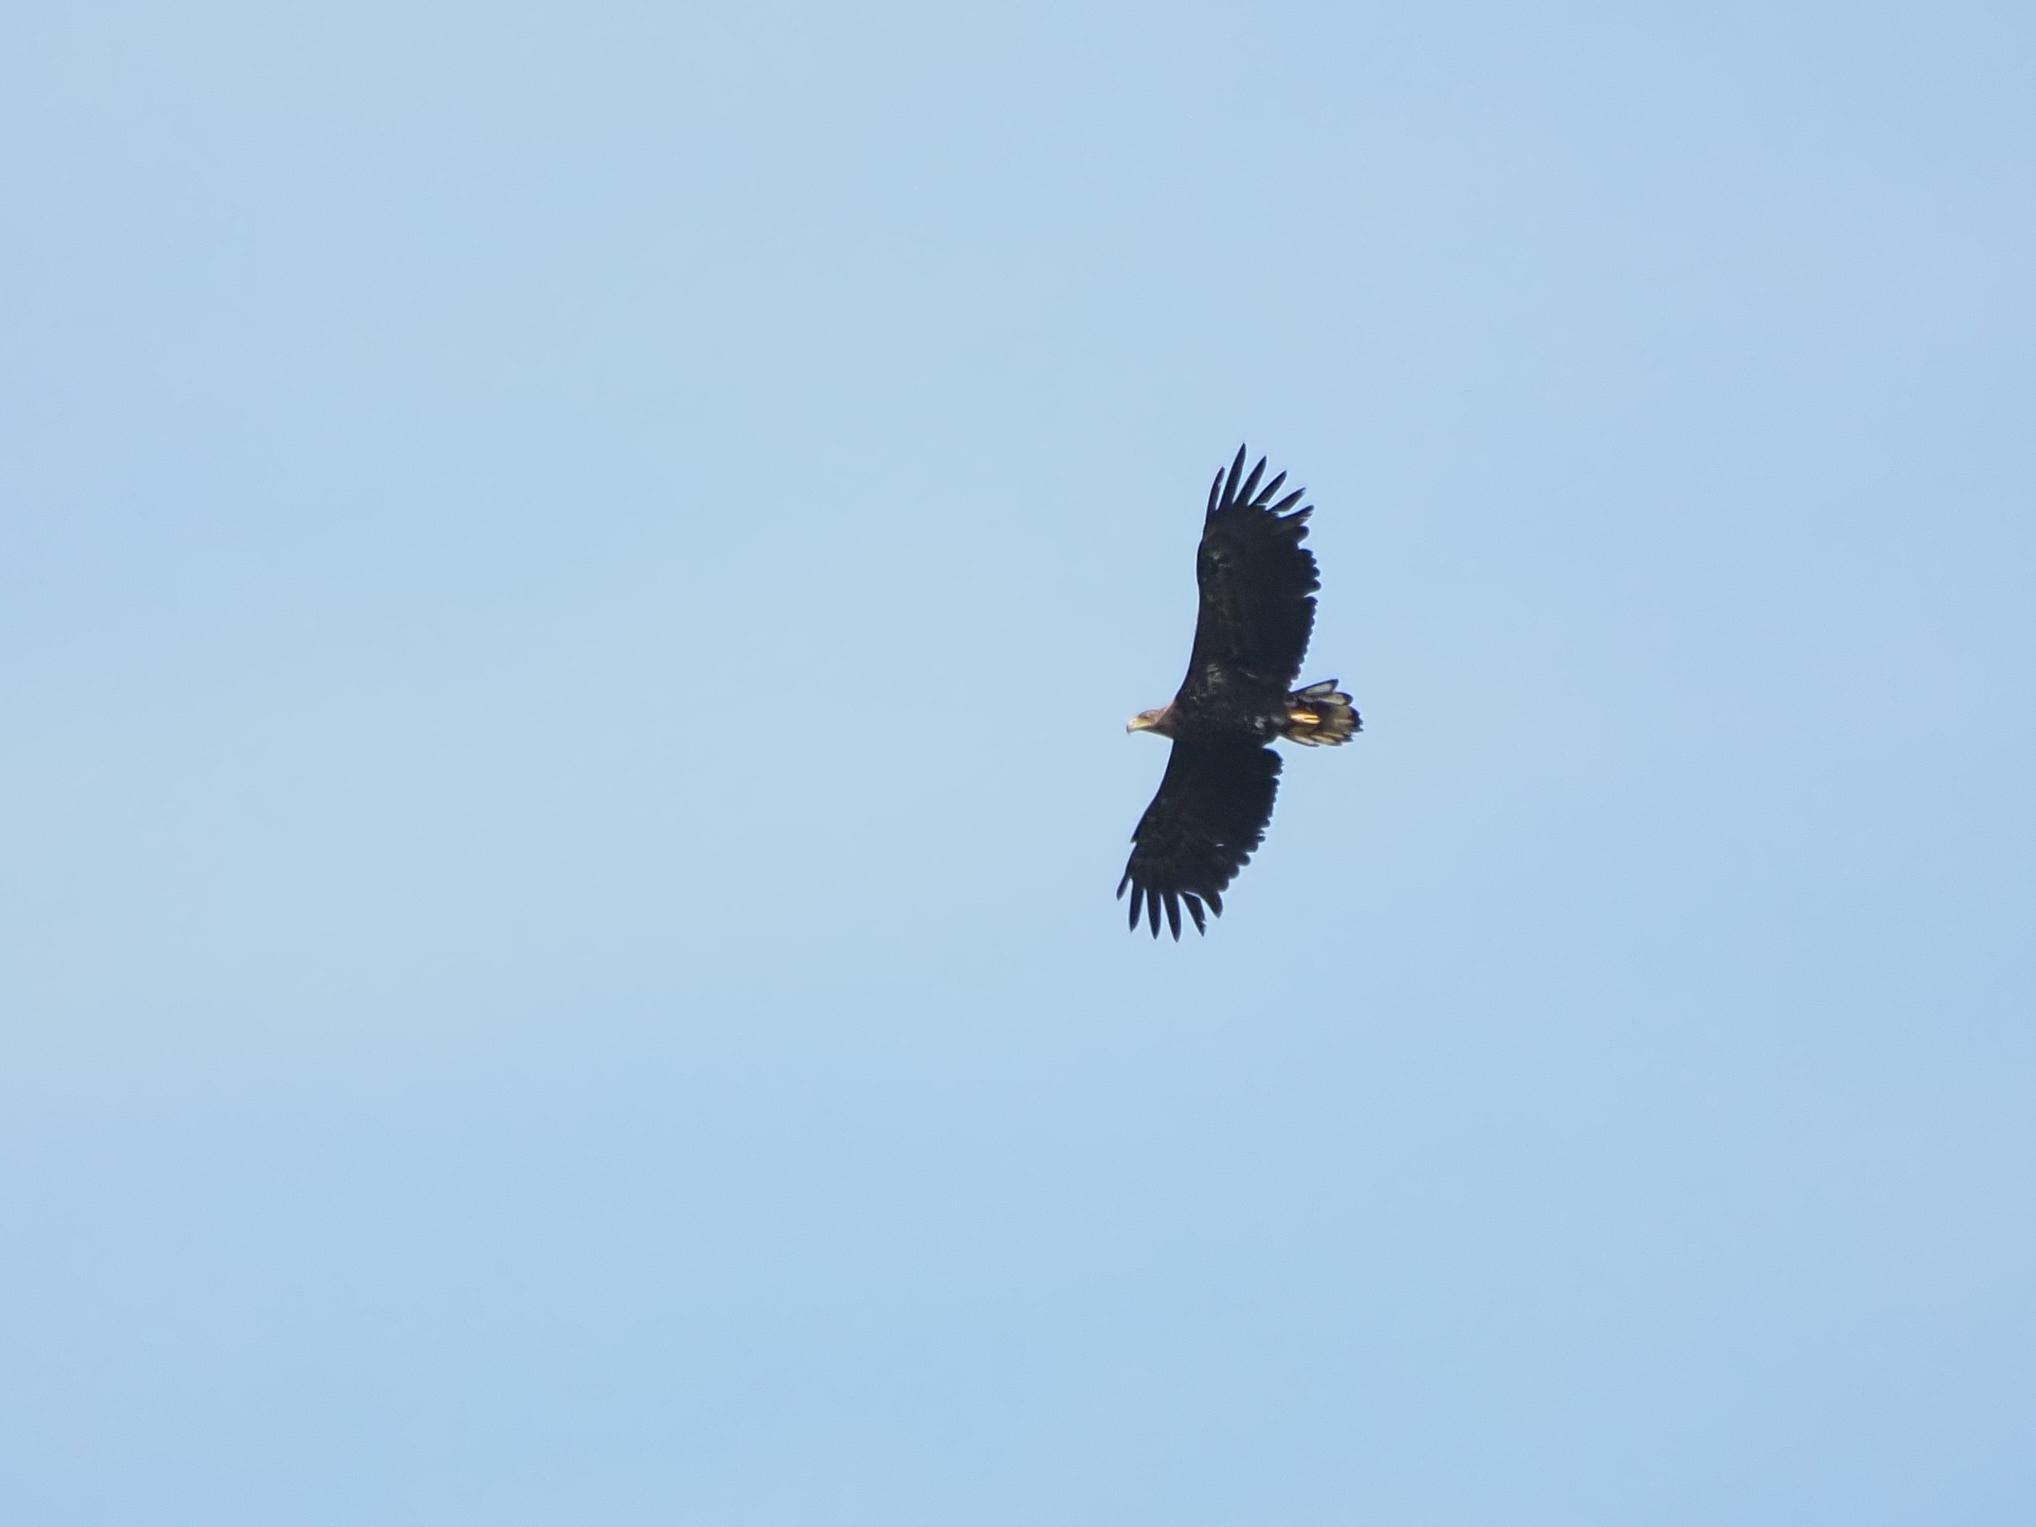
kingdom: Animalia
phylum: Chordata
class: Aves
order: Accipitriformes
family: Accipitridae
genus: Haliaeetus
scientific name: Haliaeetus albicilla
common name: White-tailed eagle
